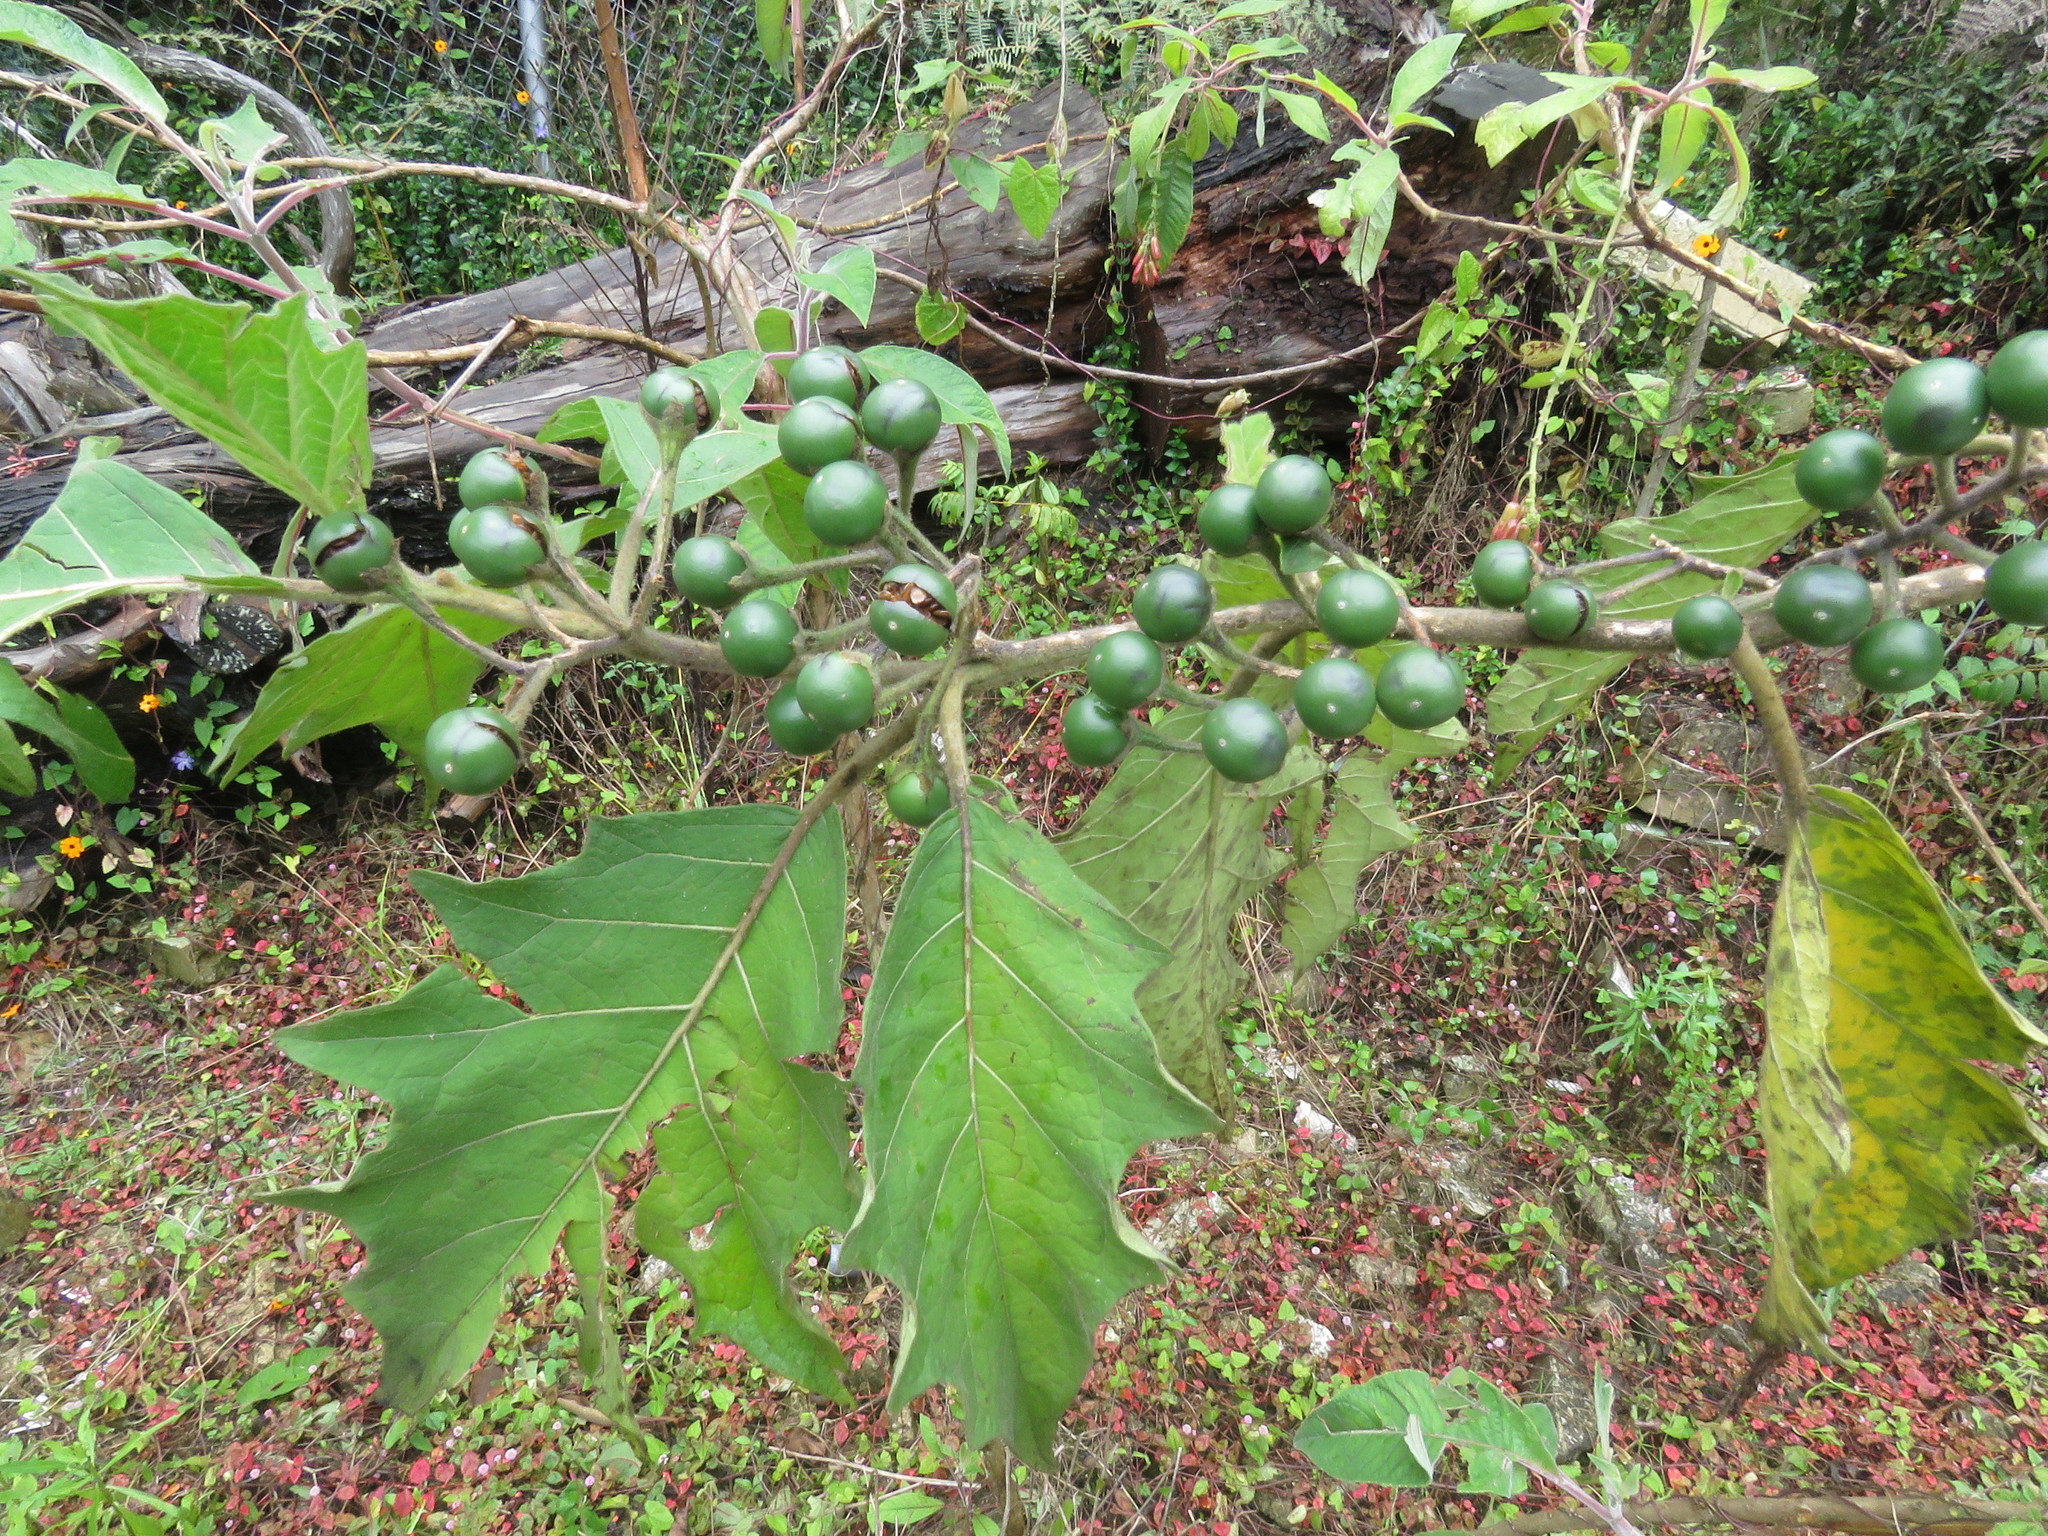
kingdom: Plantae
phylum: Tracheophyta
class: Magnoliopsida
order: Solanales
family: Solanaceae
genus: Solanum
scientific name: Solanum stellatiglandulosum
